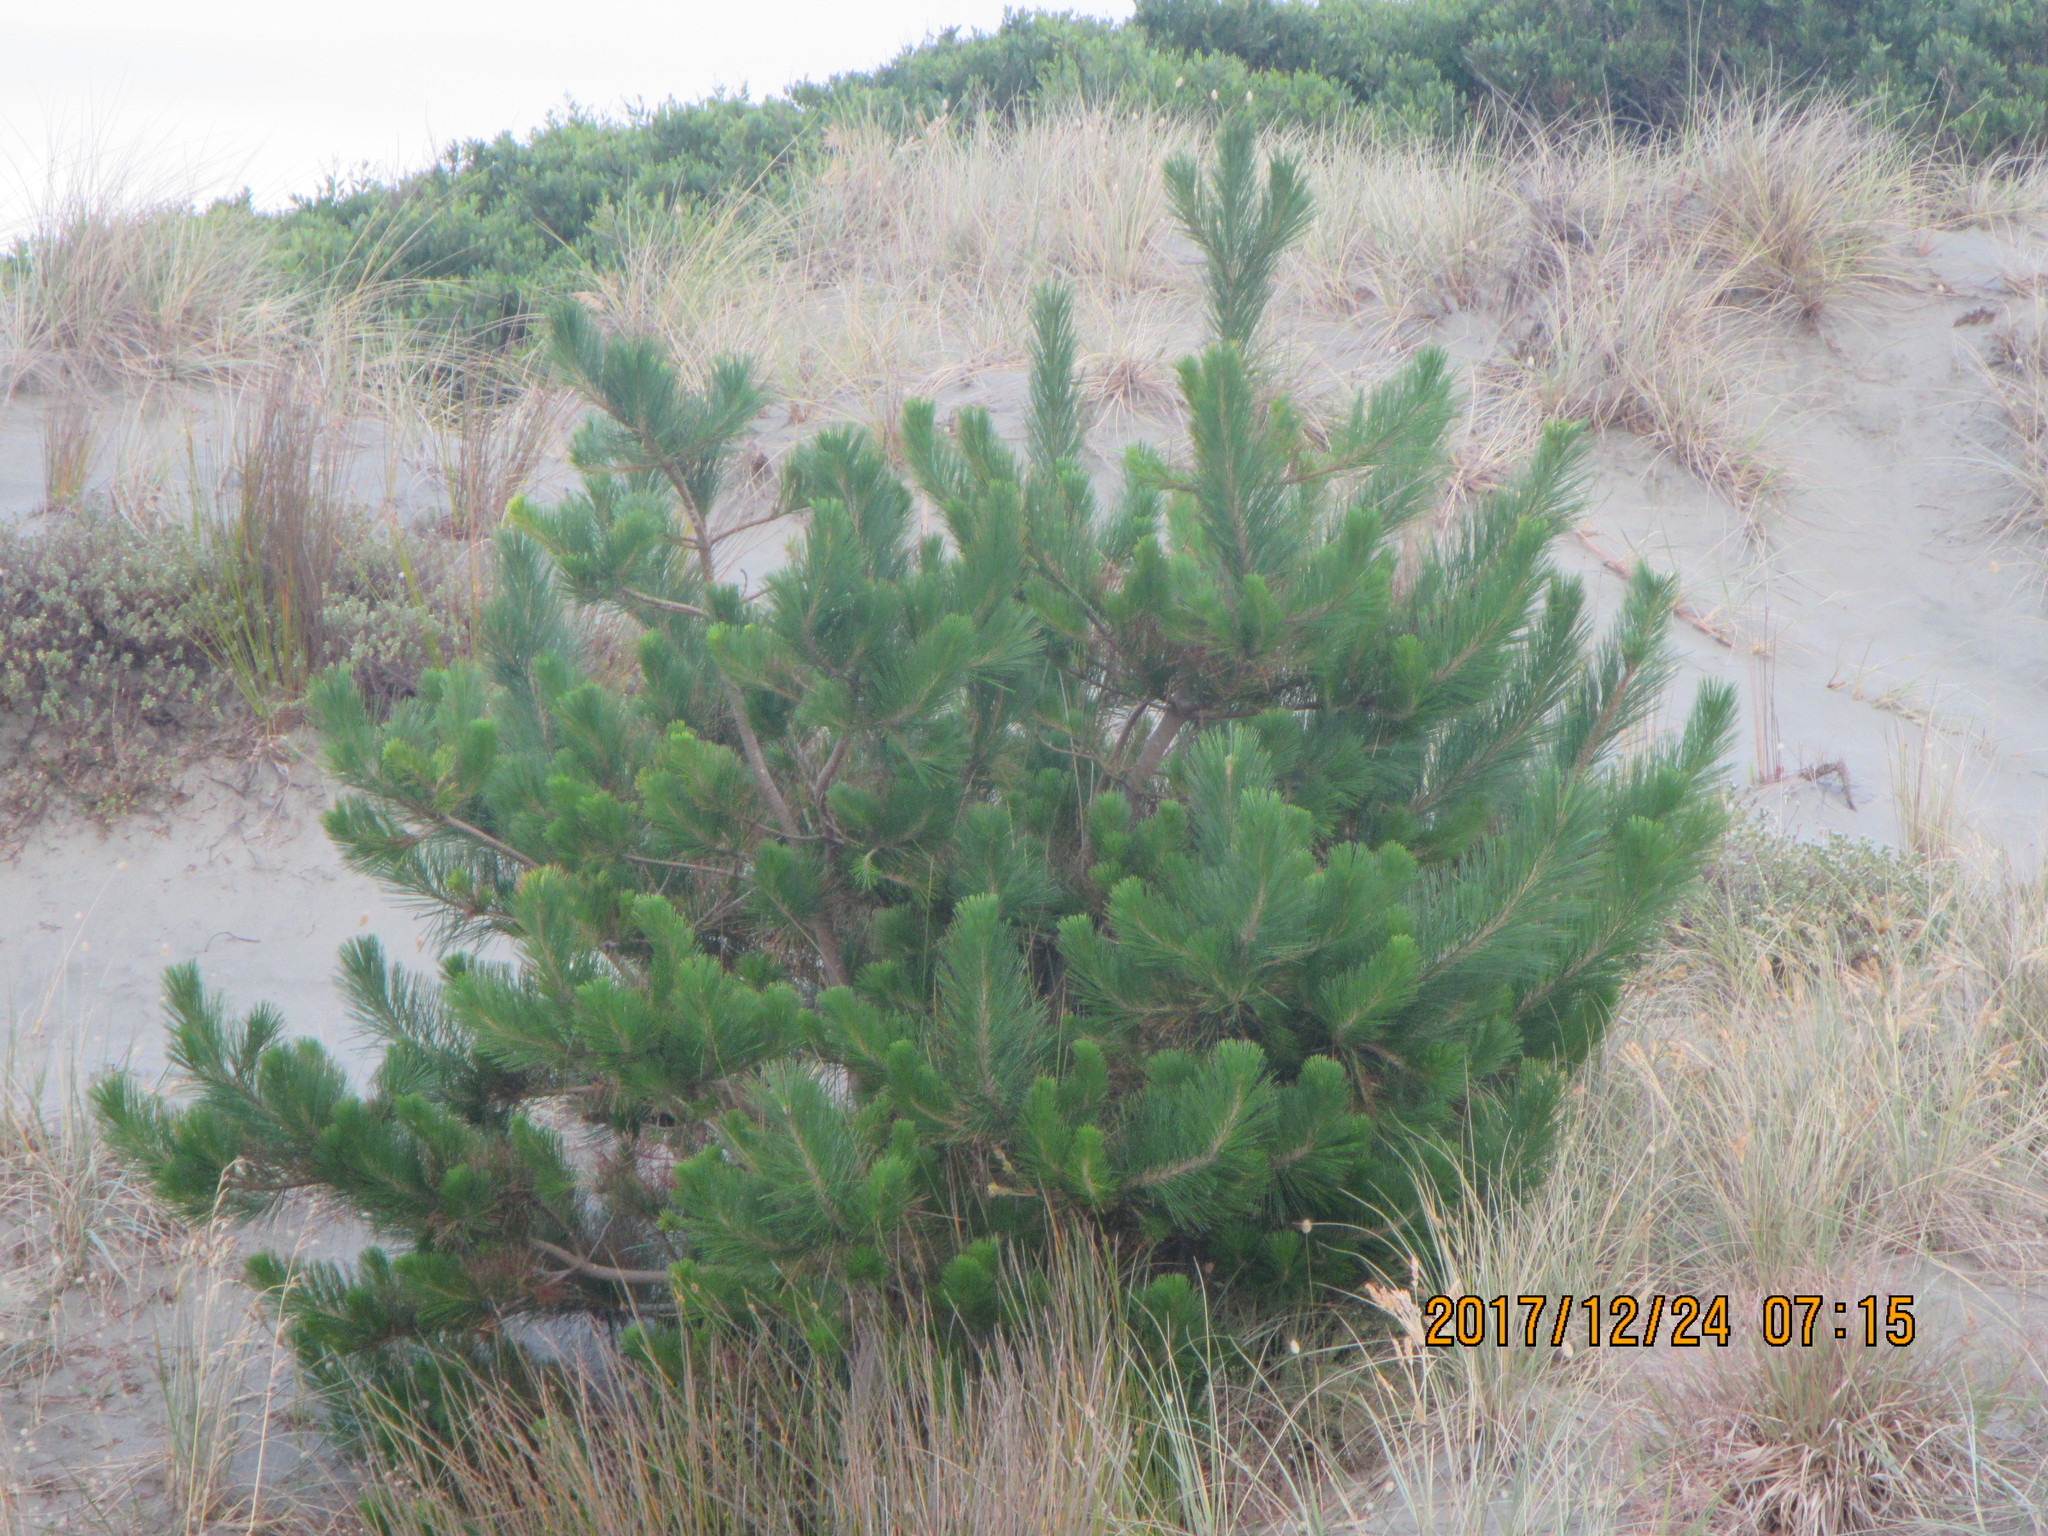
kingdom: Plantae
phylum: Tracheophyta
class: Pinopsida
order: Pinales
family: Pinaceae
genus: Pinus
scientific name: Pinus radiata
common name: Monterey pine
